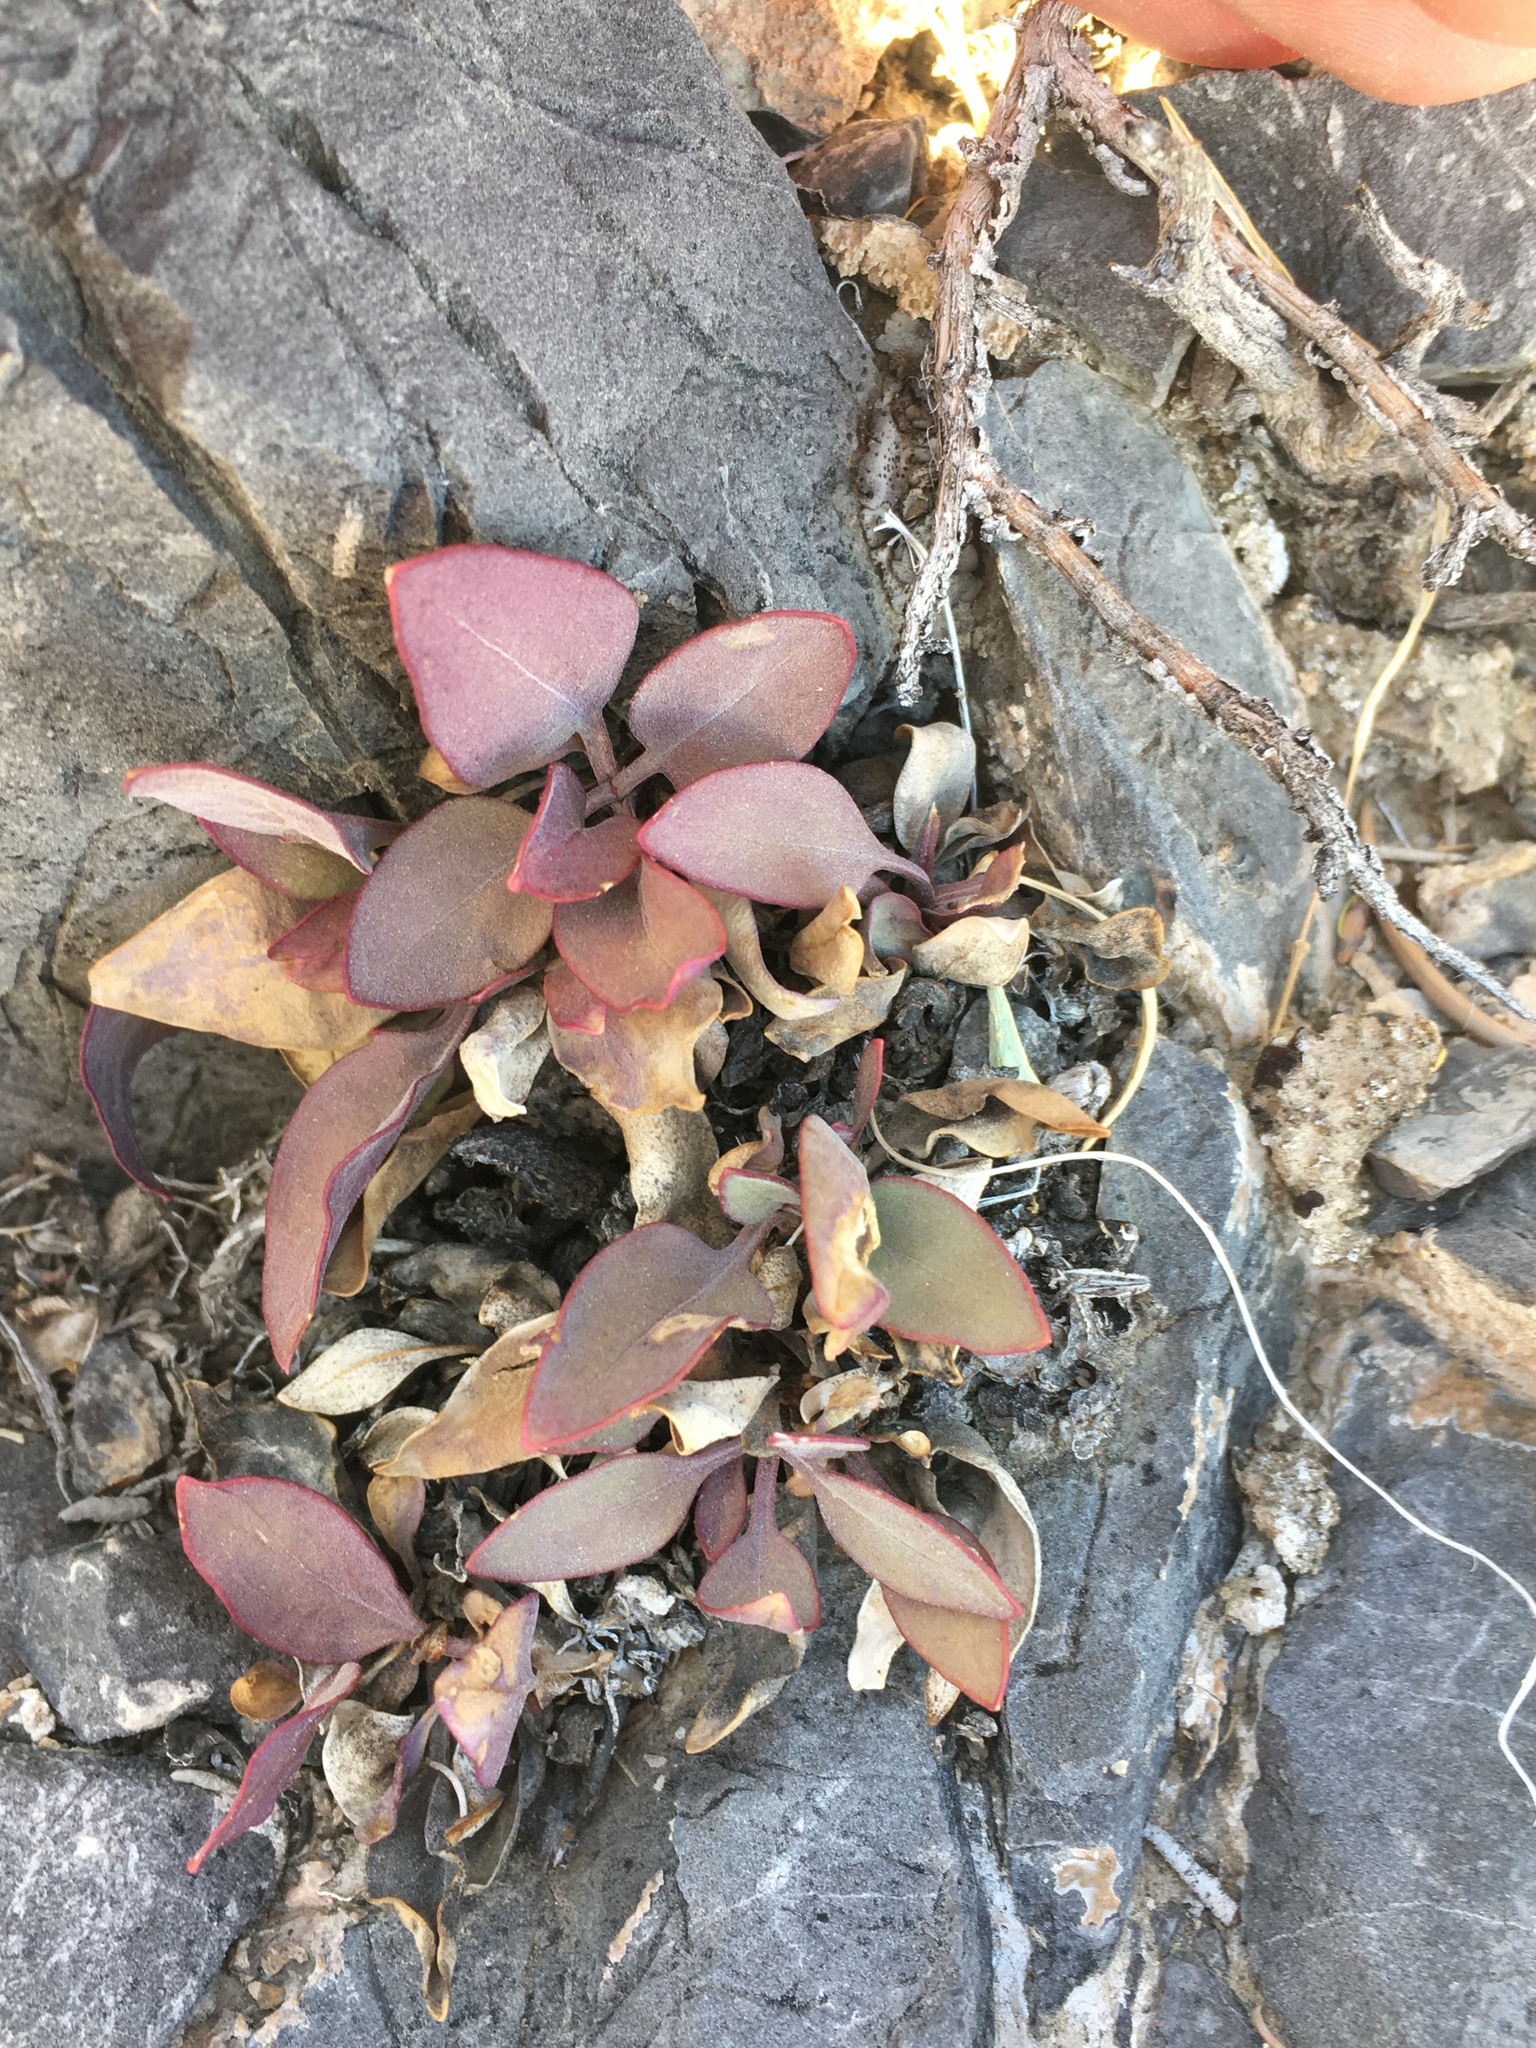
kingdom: Plantae
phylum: Tracheophyta
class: Magnoliopsida
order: Lamiales
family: Plantaginaceae
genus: Penstemon
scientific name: Penstemon calcareus
